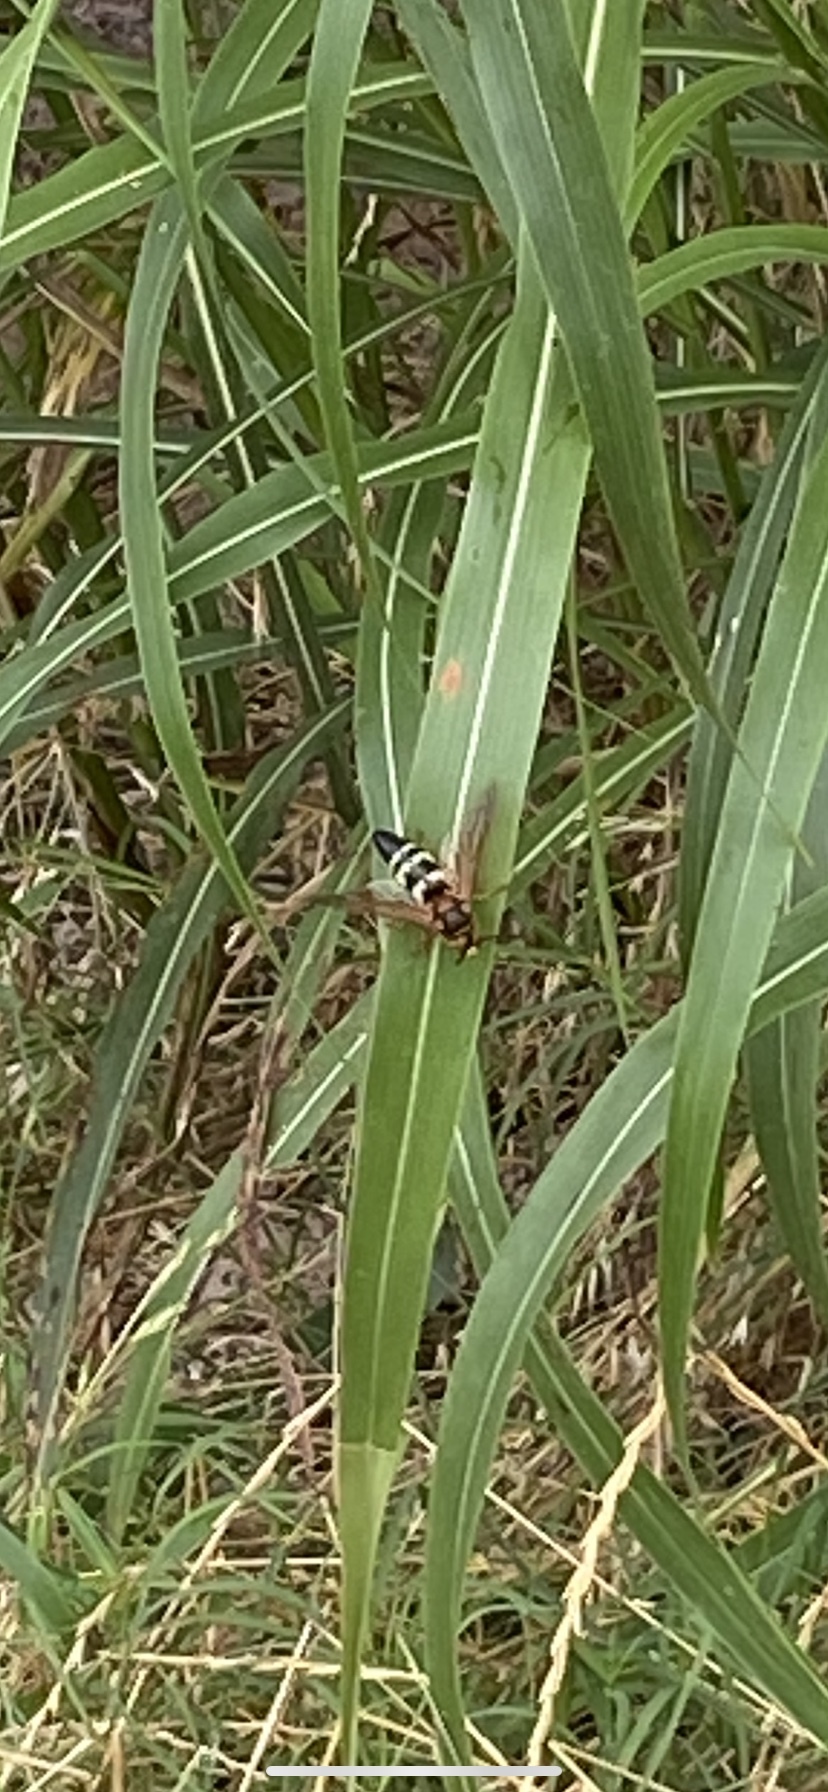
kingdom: Animalia
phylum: Arthropoda
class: Insecta
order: Hymenoptera
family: Crabronidae
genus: Sphecius
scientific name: Sphecius speciosus
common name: Cicada killer
